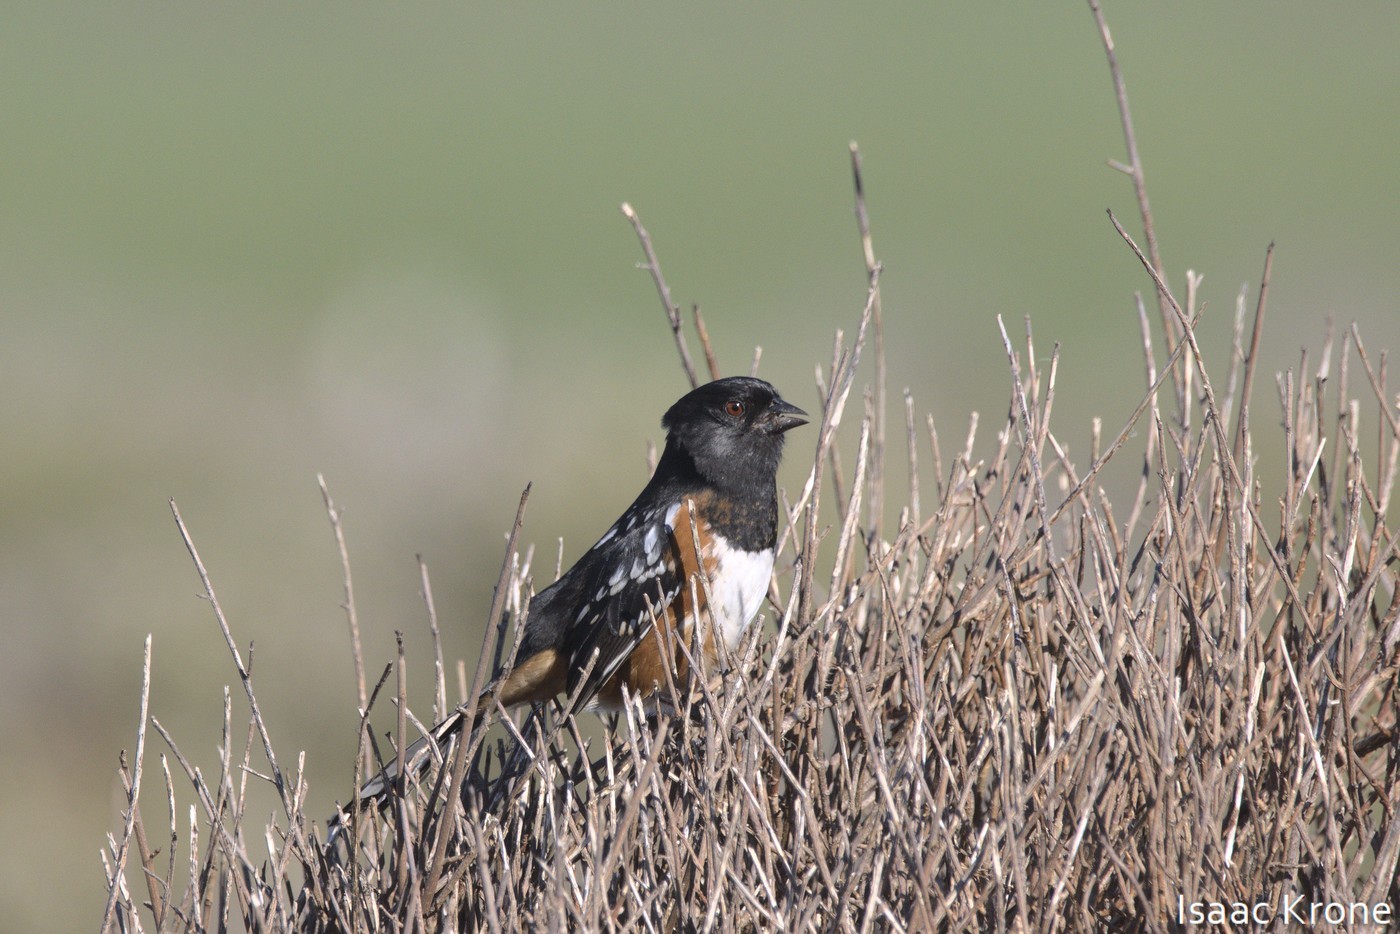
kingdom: Animalia
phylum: Chordata
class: Aves
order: Passeriformes
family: Passerellidae
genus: Pipilo
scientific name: Pipilo maculatus
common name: Spotted towhee
